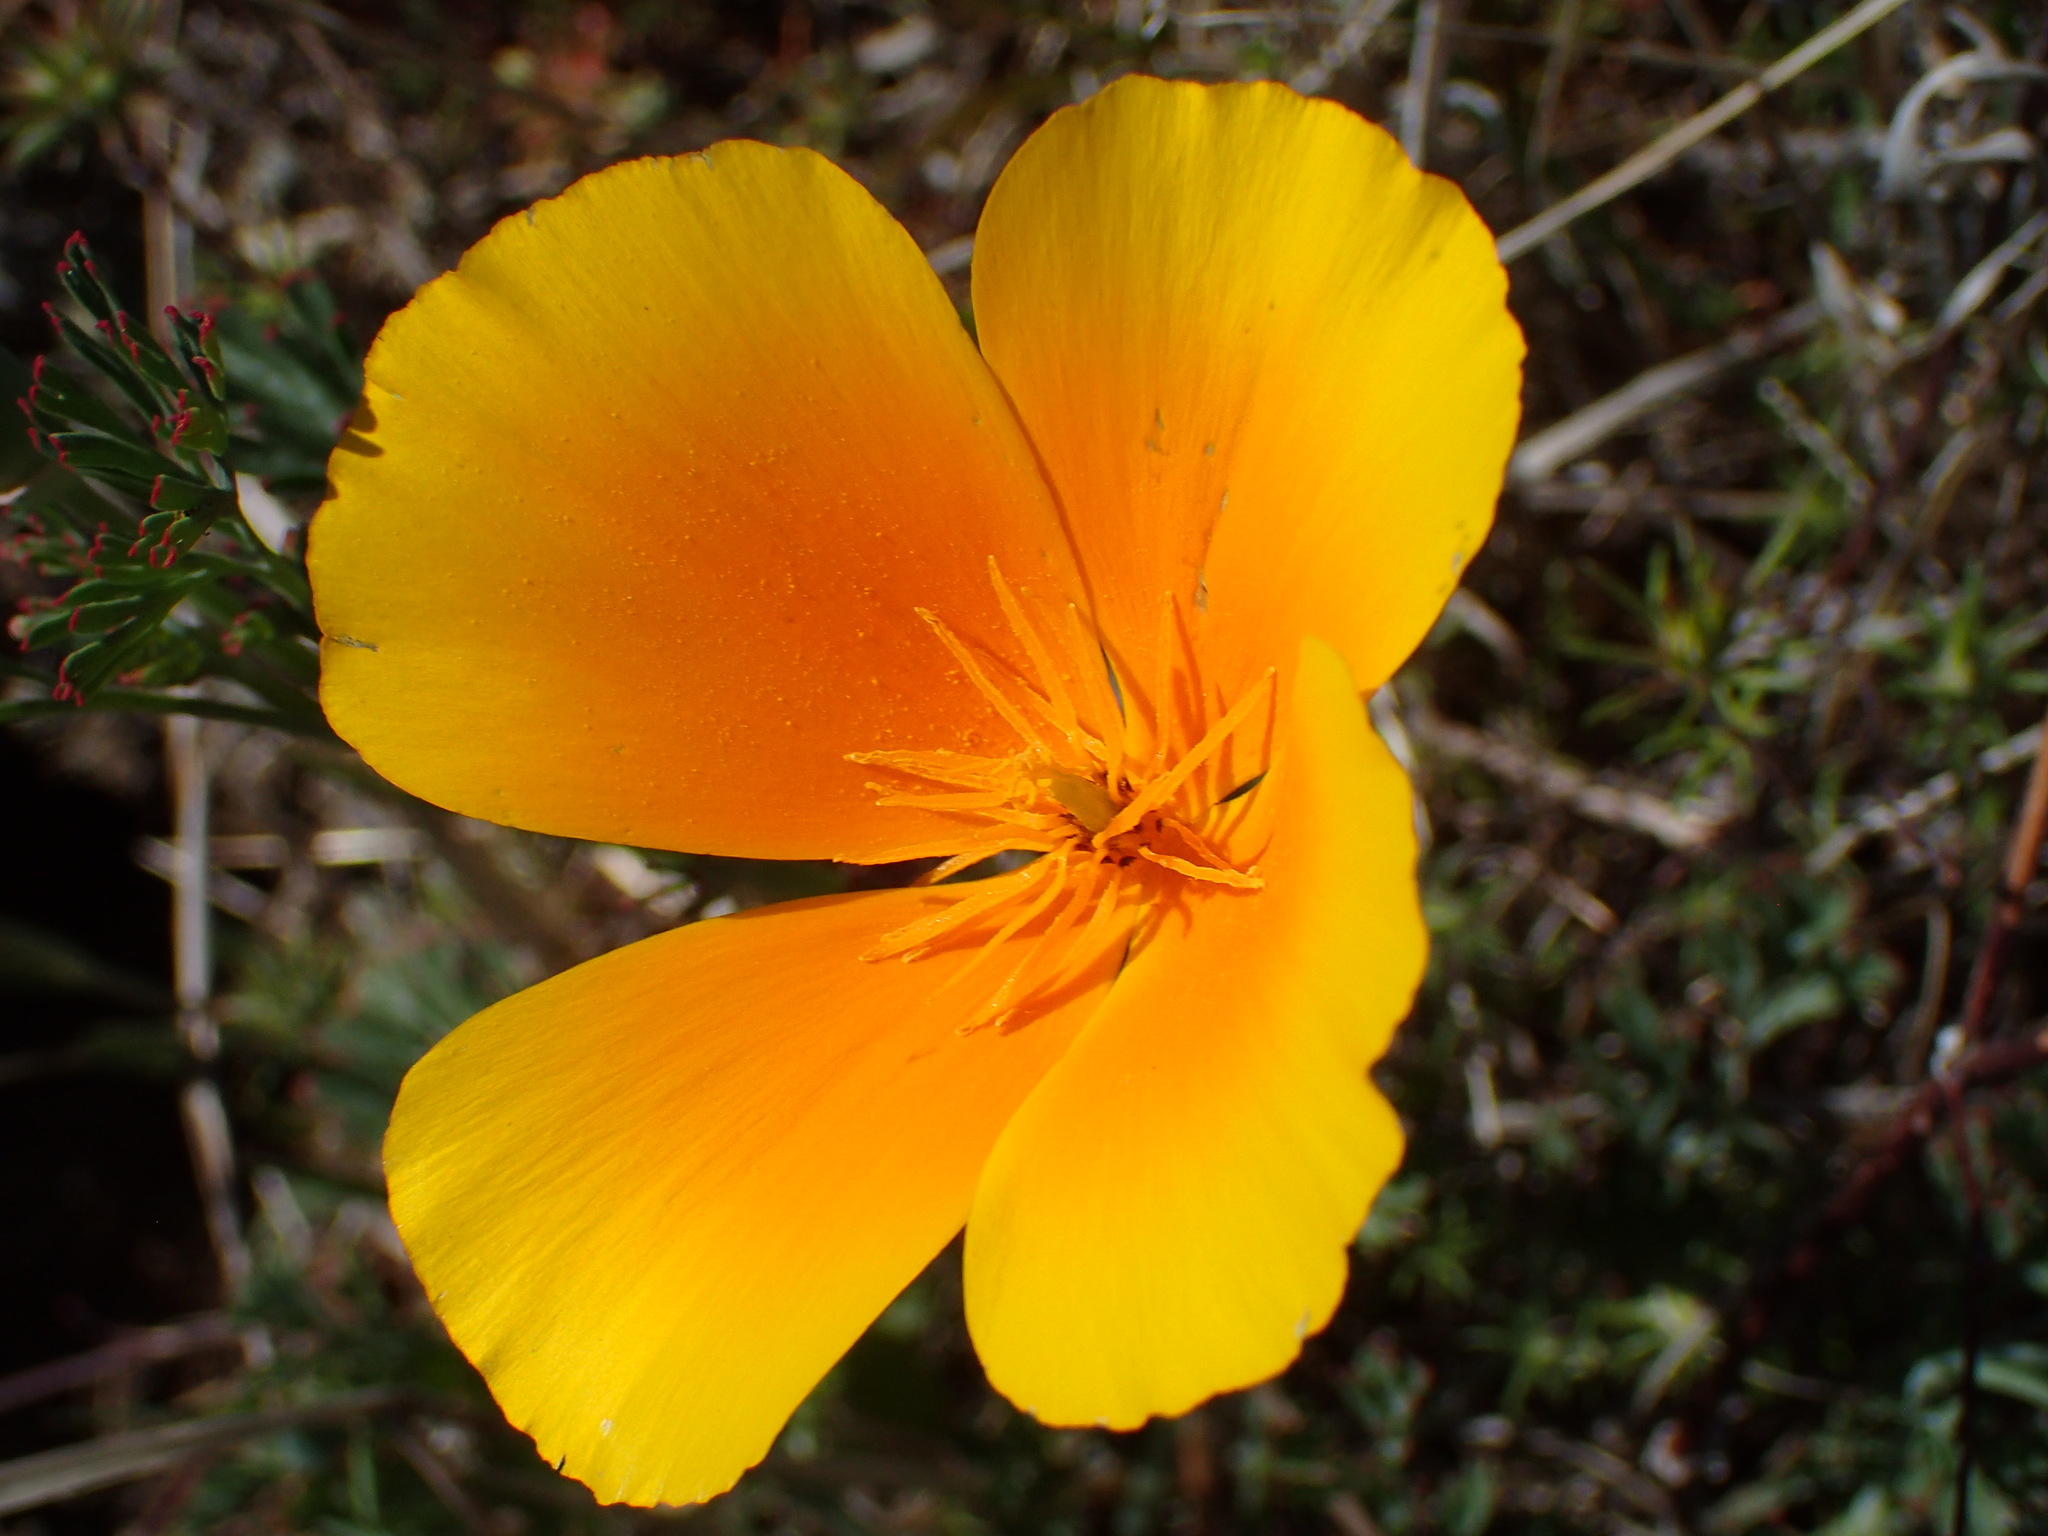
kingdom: Plantae
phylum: Tracheophyta
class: Magnoliopsida
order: Ranunculales
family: Papaveraceae
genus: Eschscholzia
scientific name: Eschscholzia californica
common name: California poppy
